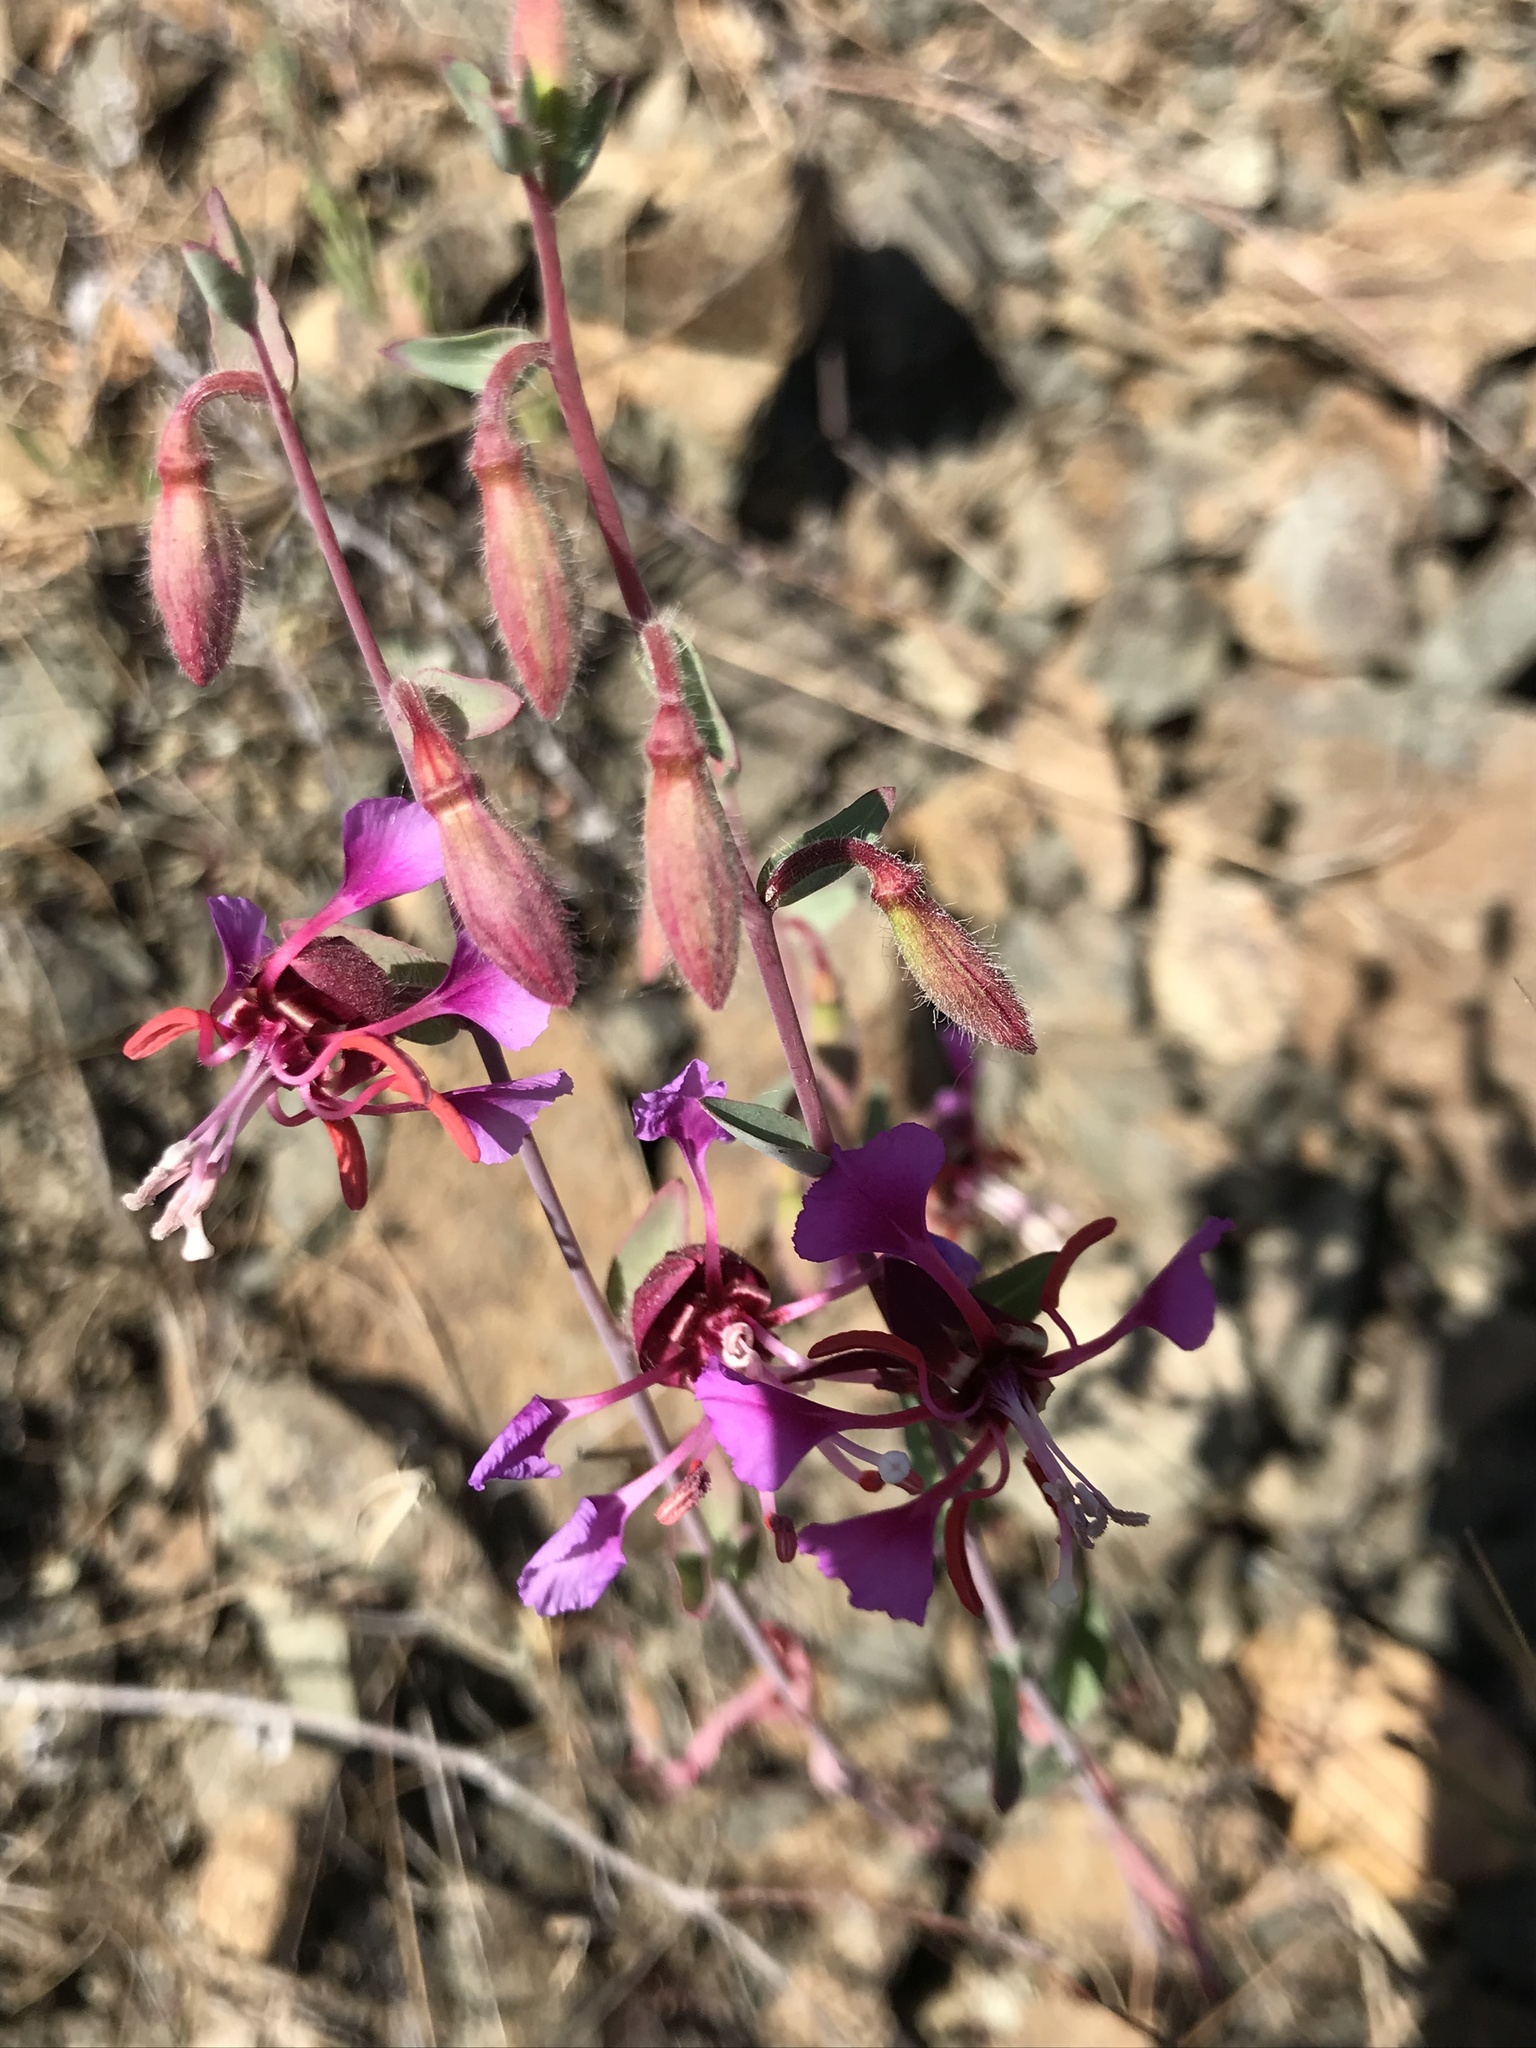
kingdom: Plantae
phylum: Tracheophyta
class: Magnoliopsida
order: Myrtales
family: Onagraceae
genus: Clarkia
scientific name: Clarkia unguiculata
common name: Clarkia
